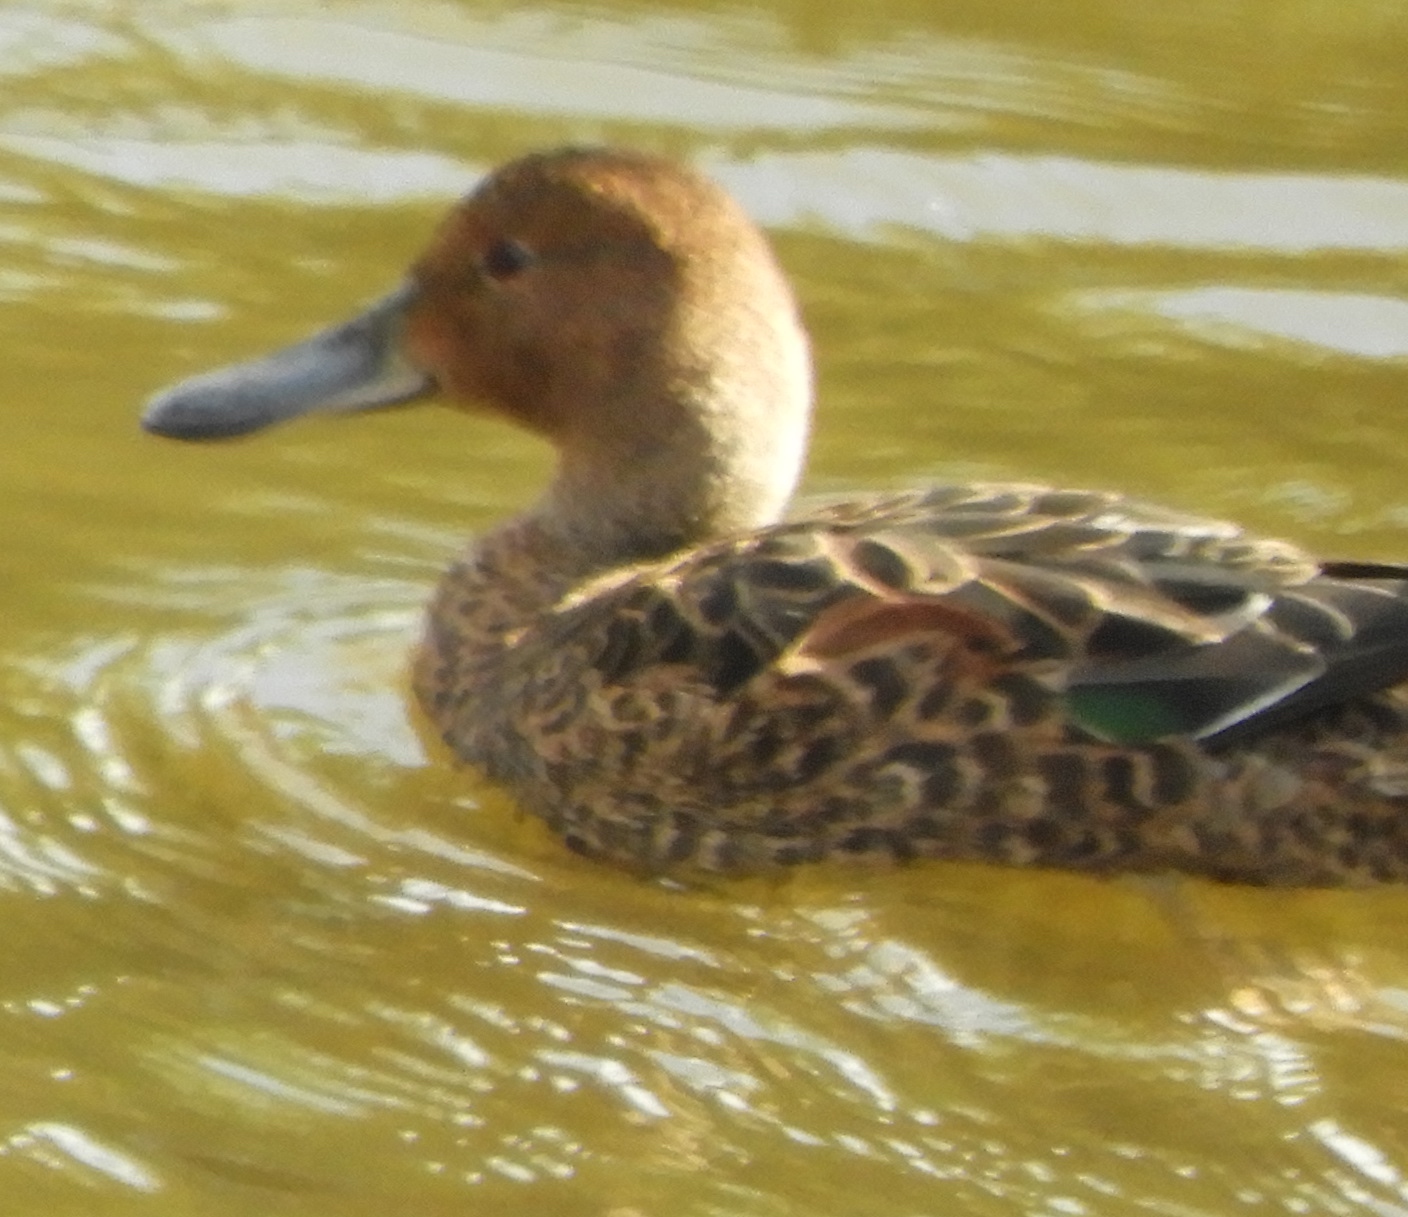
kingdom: Animalia
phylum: Chordata
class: Aves
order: Anseriformes
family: Anatidae
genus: Spatula
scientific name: Spatula cyanoptera
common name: Cinnamon teal
